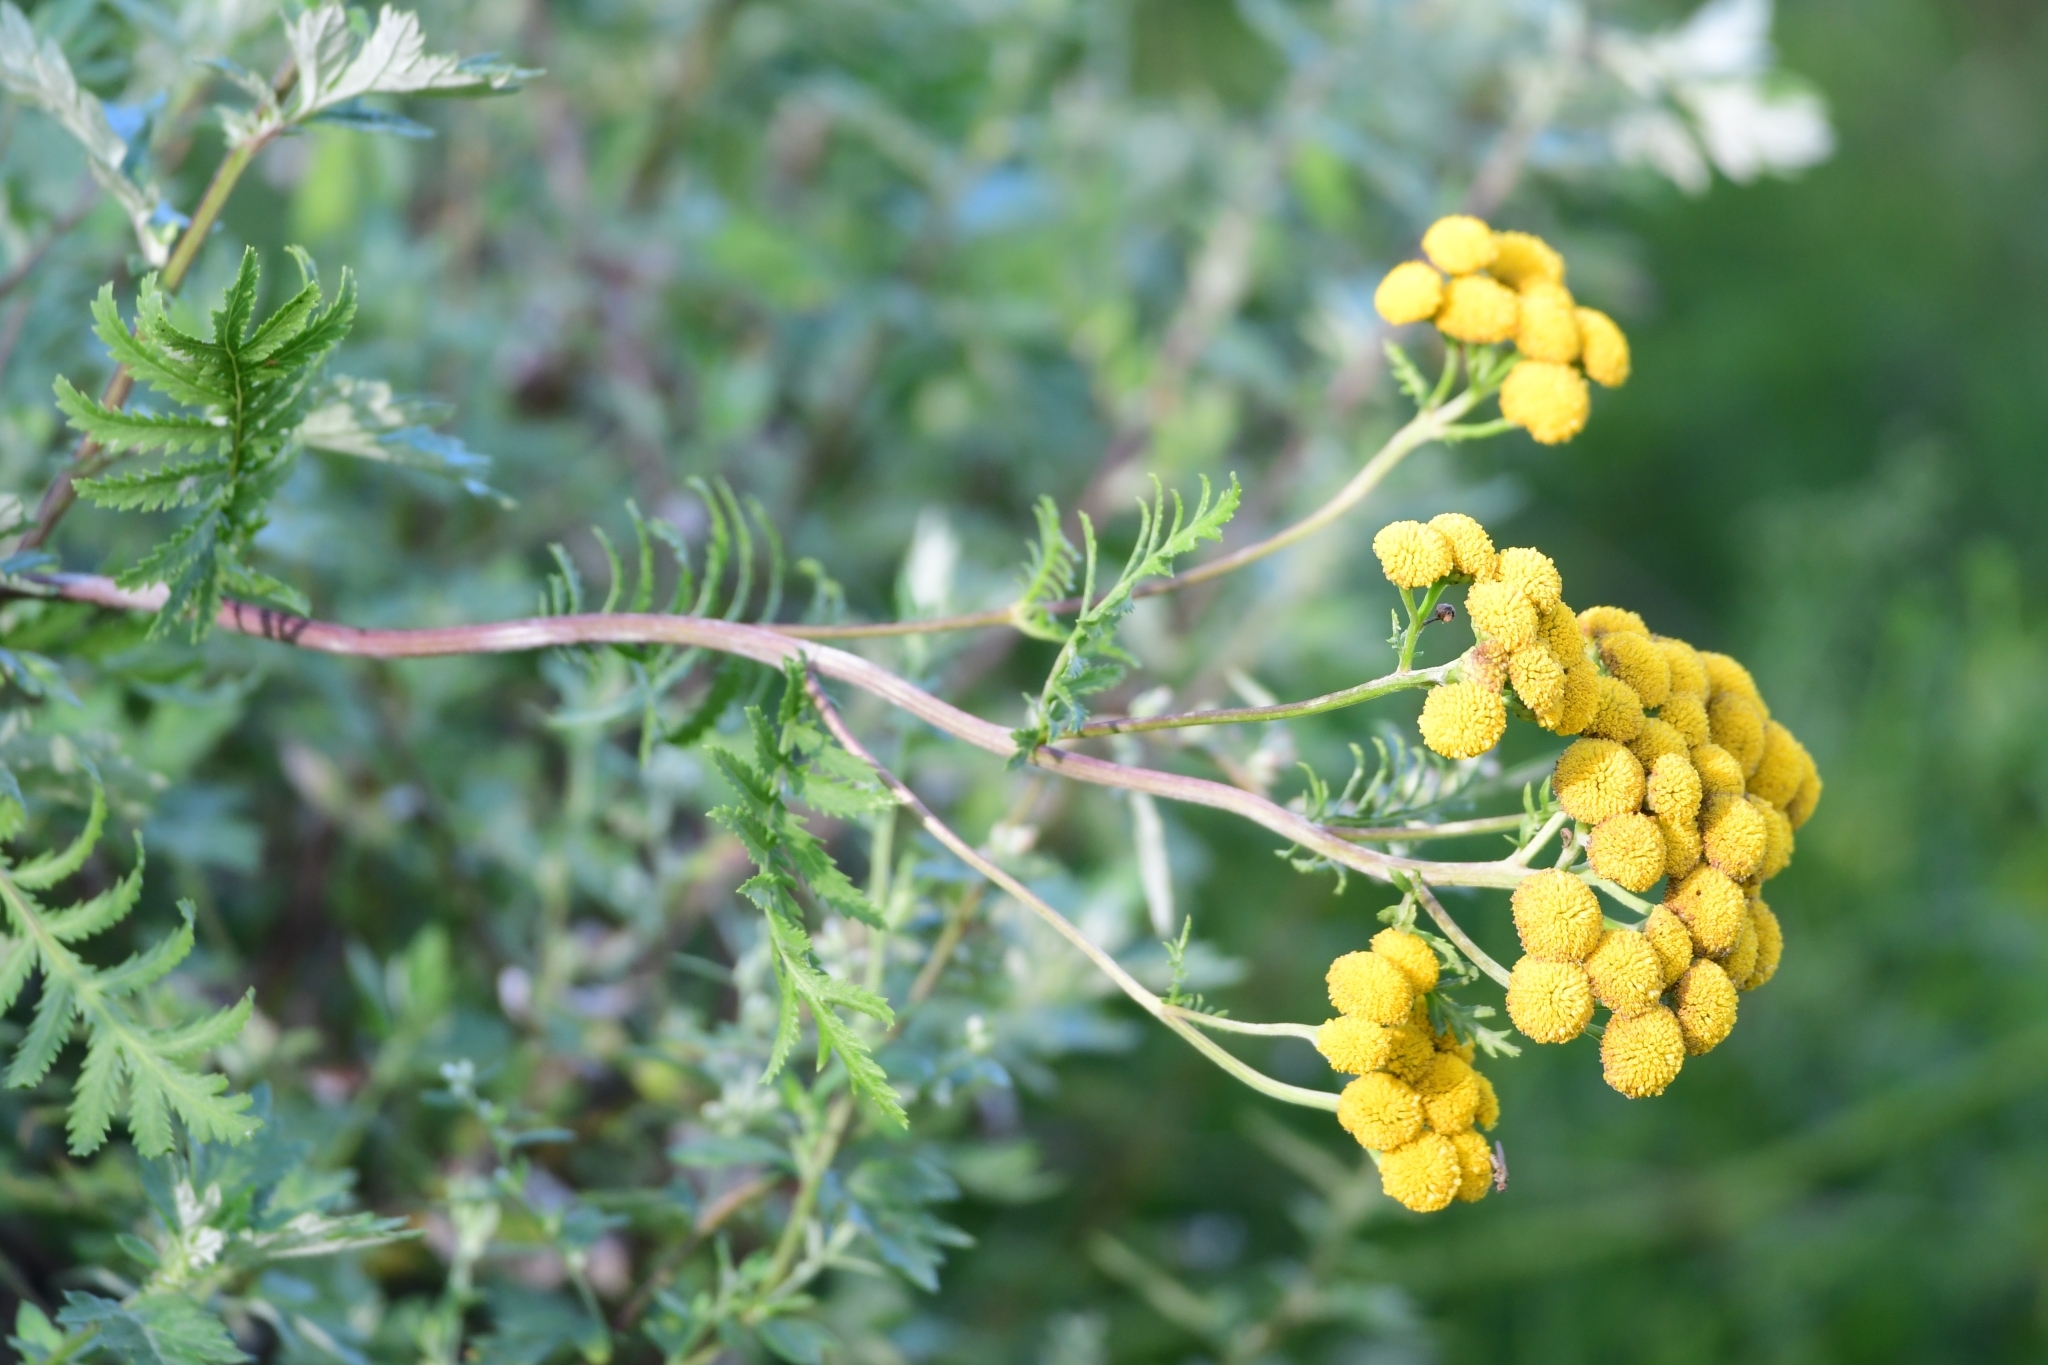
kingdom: Plantae
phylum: Tracheophyta
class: Magnoliopsida
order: Asterales
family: Asteraceae
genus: Tanacetum
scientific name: Tanacetum vulgare
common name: Common tansy
